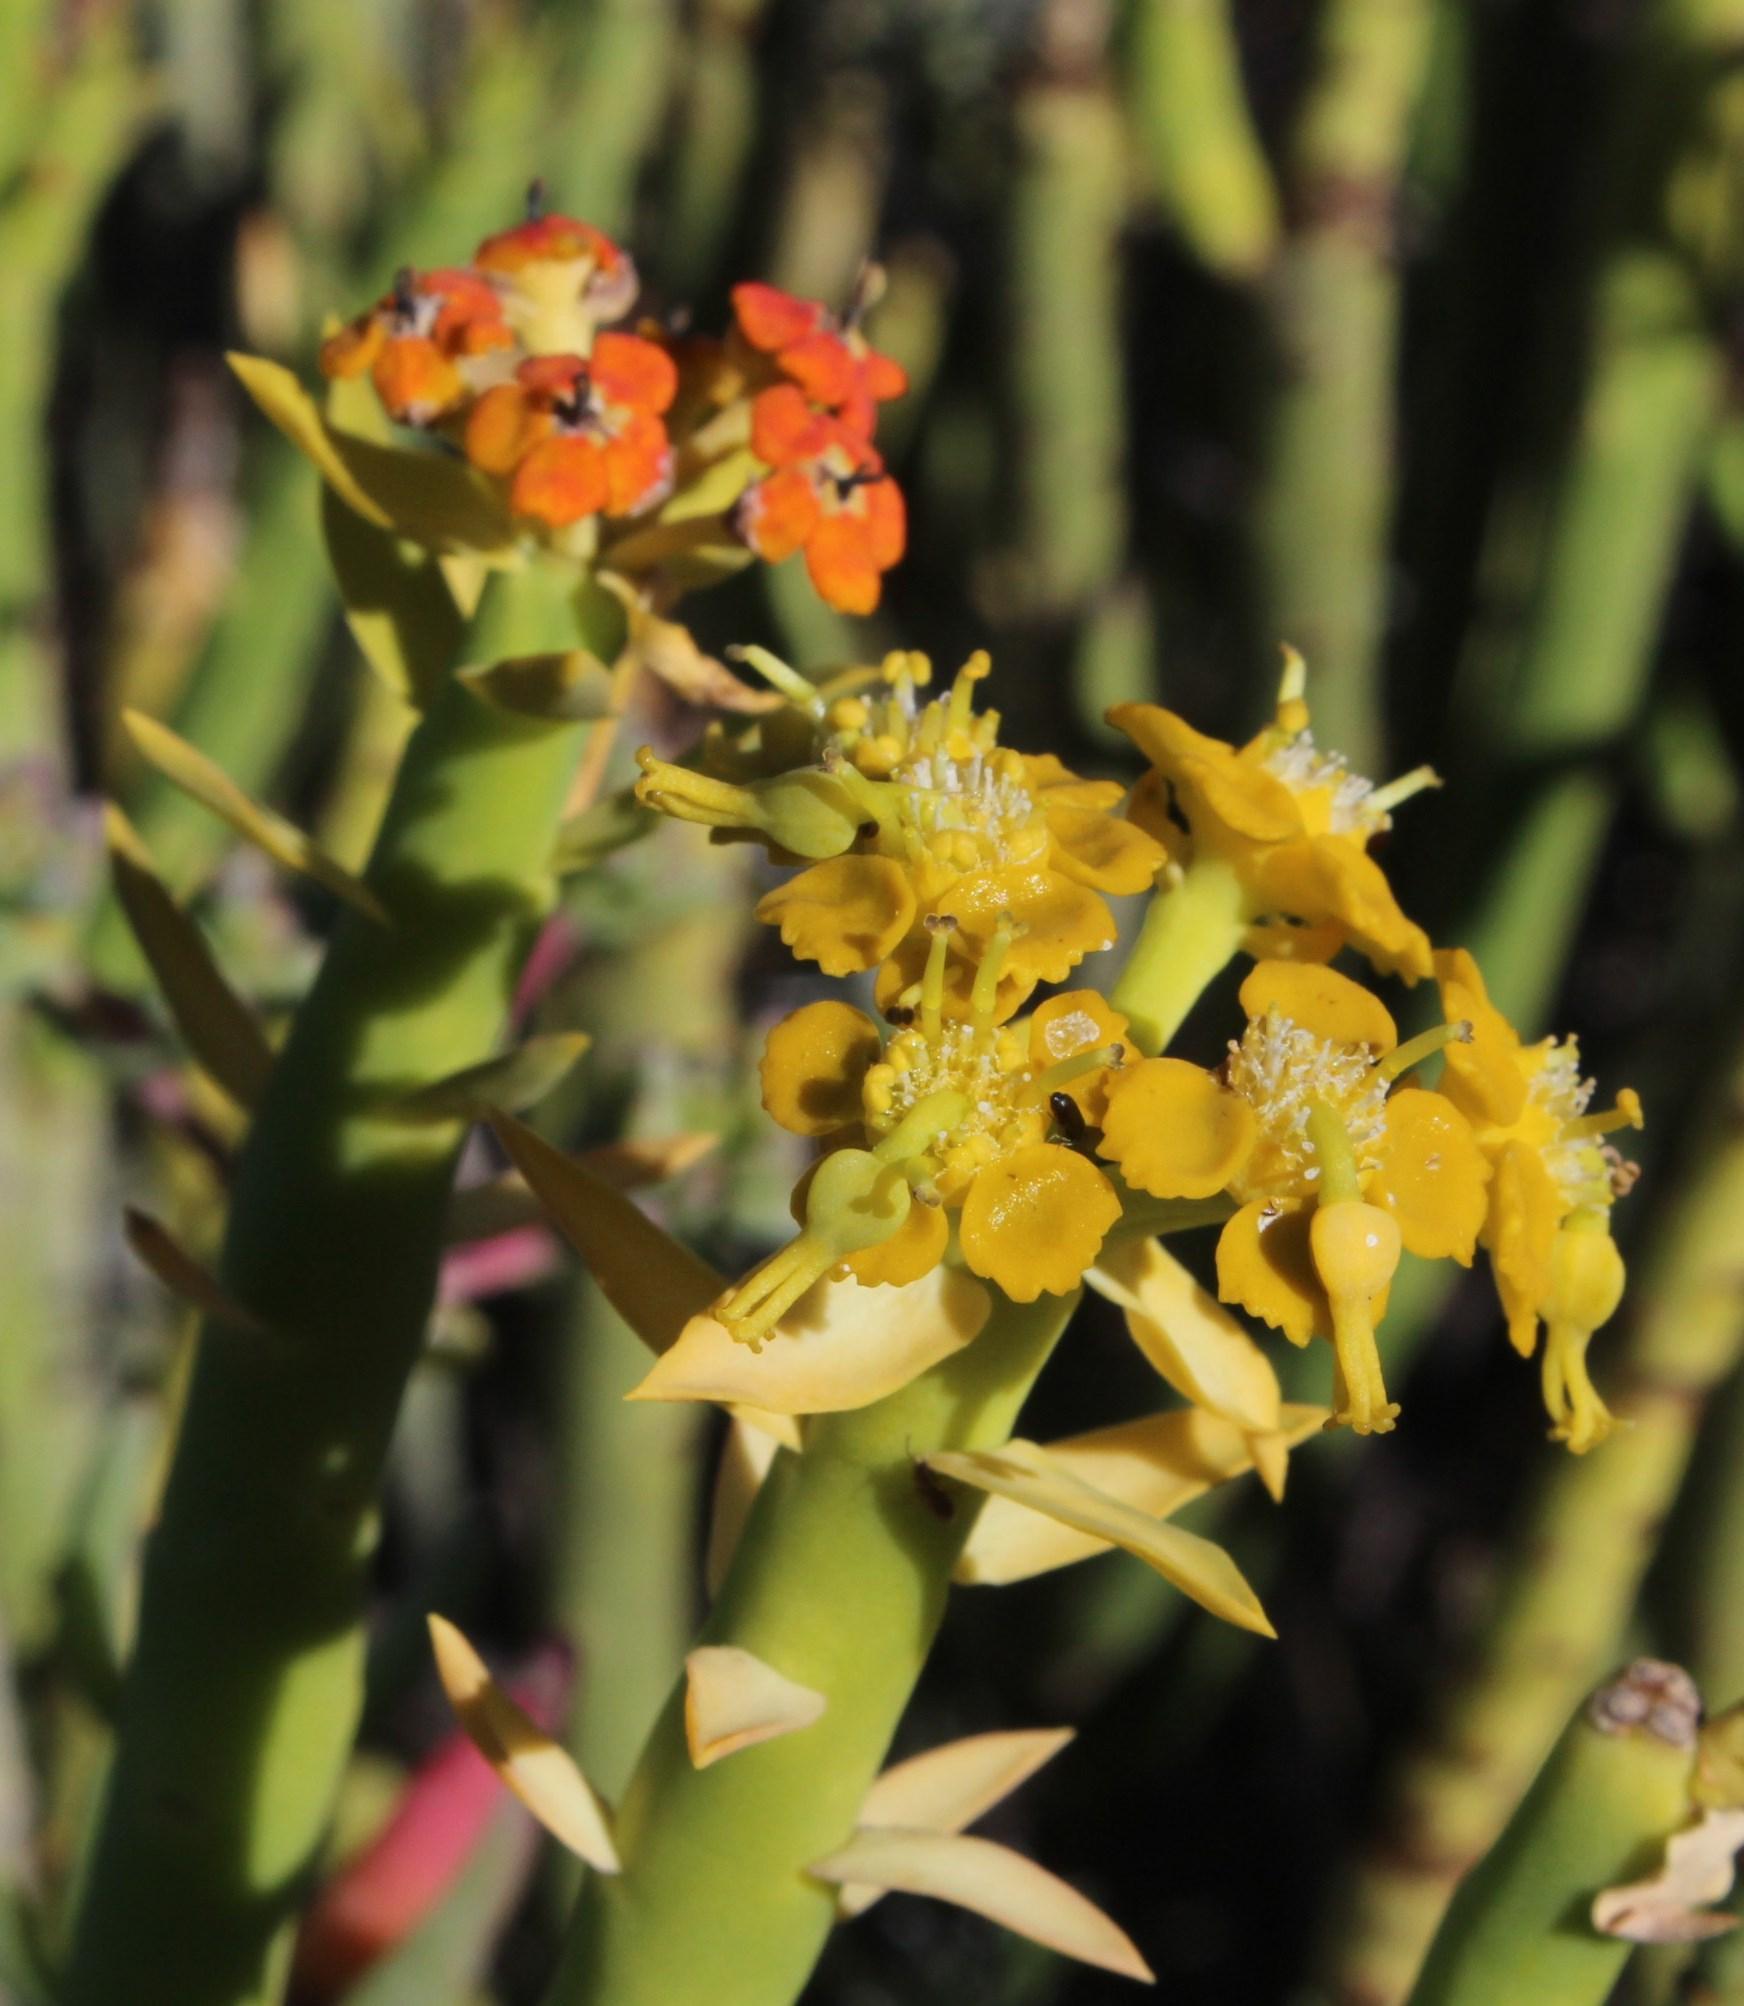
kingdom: Plantae
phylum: Tracheophyta
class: Magnoliopsida
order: Malpighiales
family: Euphorbiaceae
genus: Euphorbia
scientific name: Euphorbia mauritanica
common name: Jackal's-food
